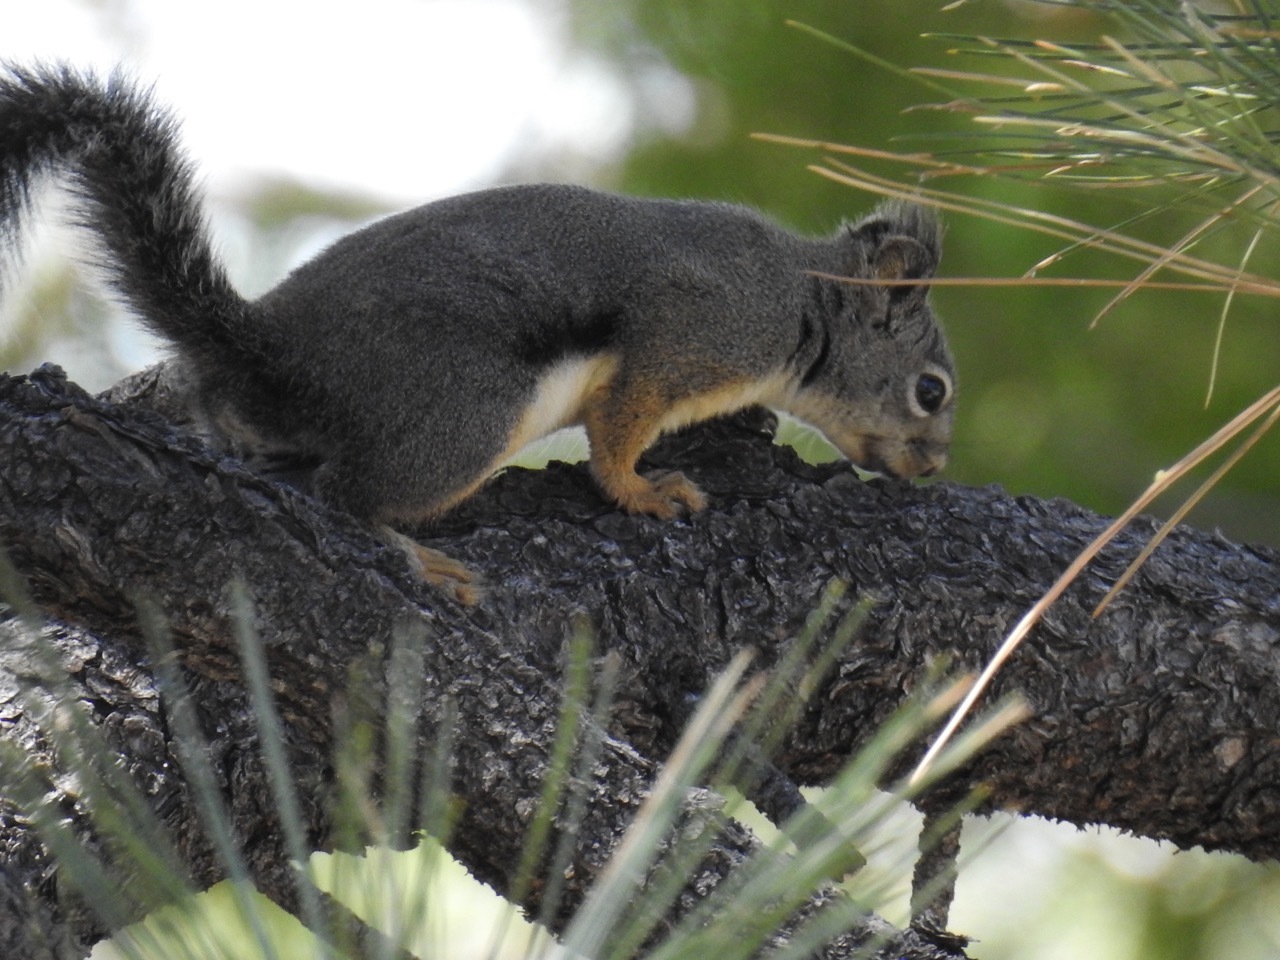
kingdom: Animalia
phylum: Chordata
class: Mammalia
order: Rodentia
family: Sciuridae
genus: Tamiasciurus
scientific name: Tamiasciurus douglasii
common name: Douglas's squirrel
